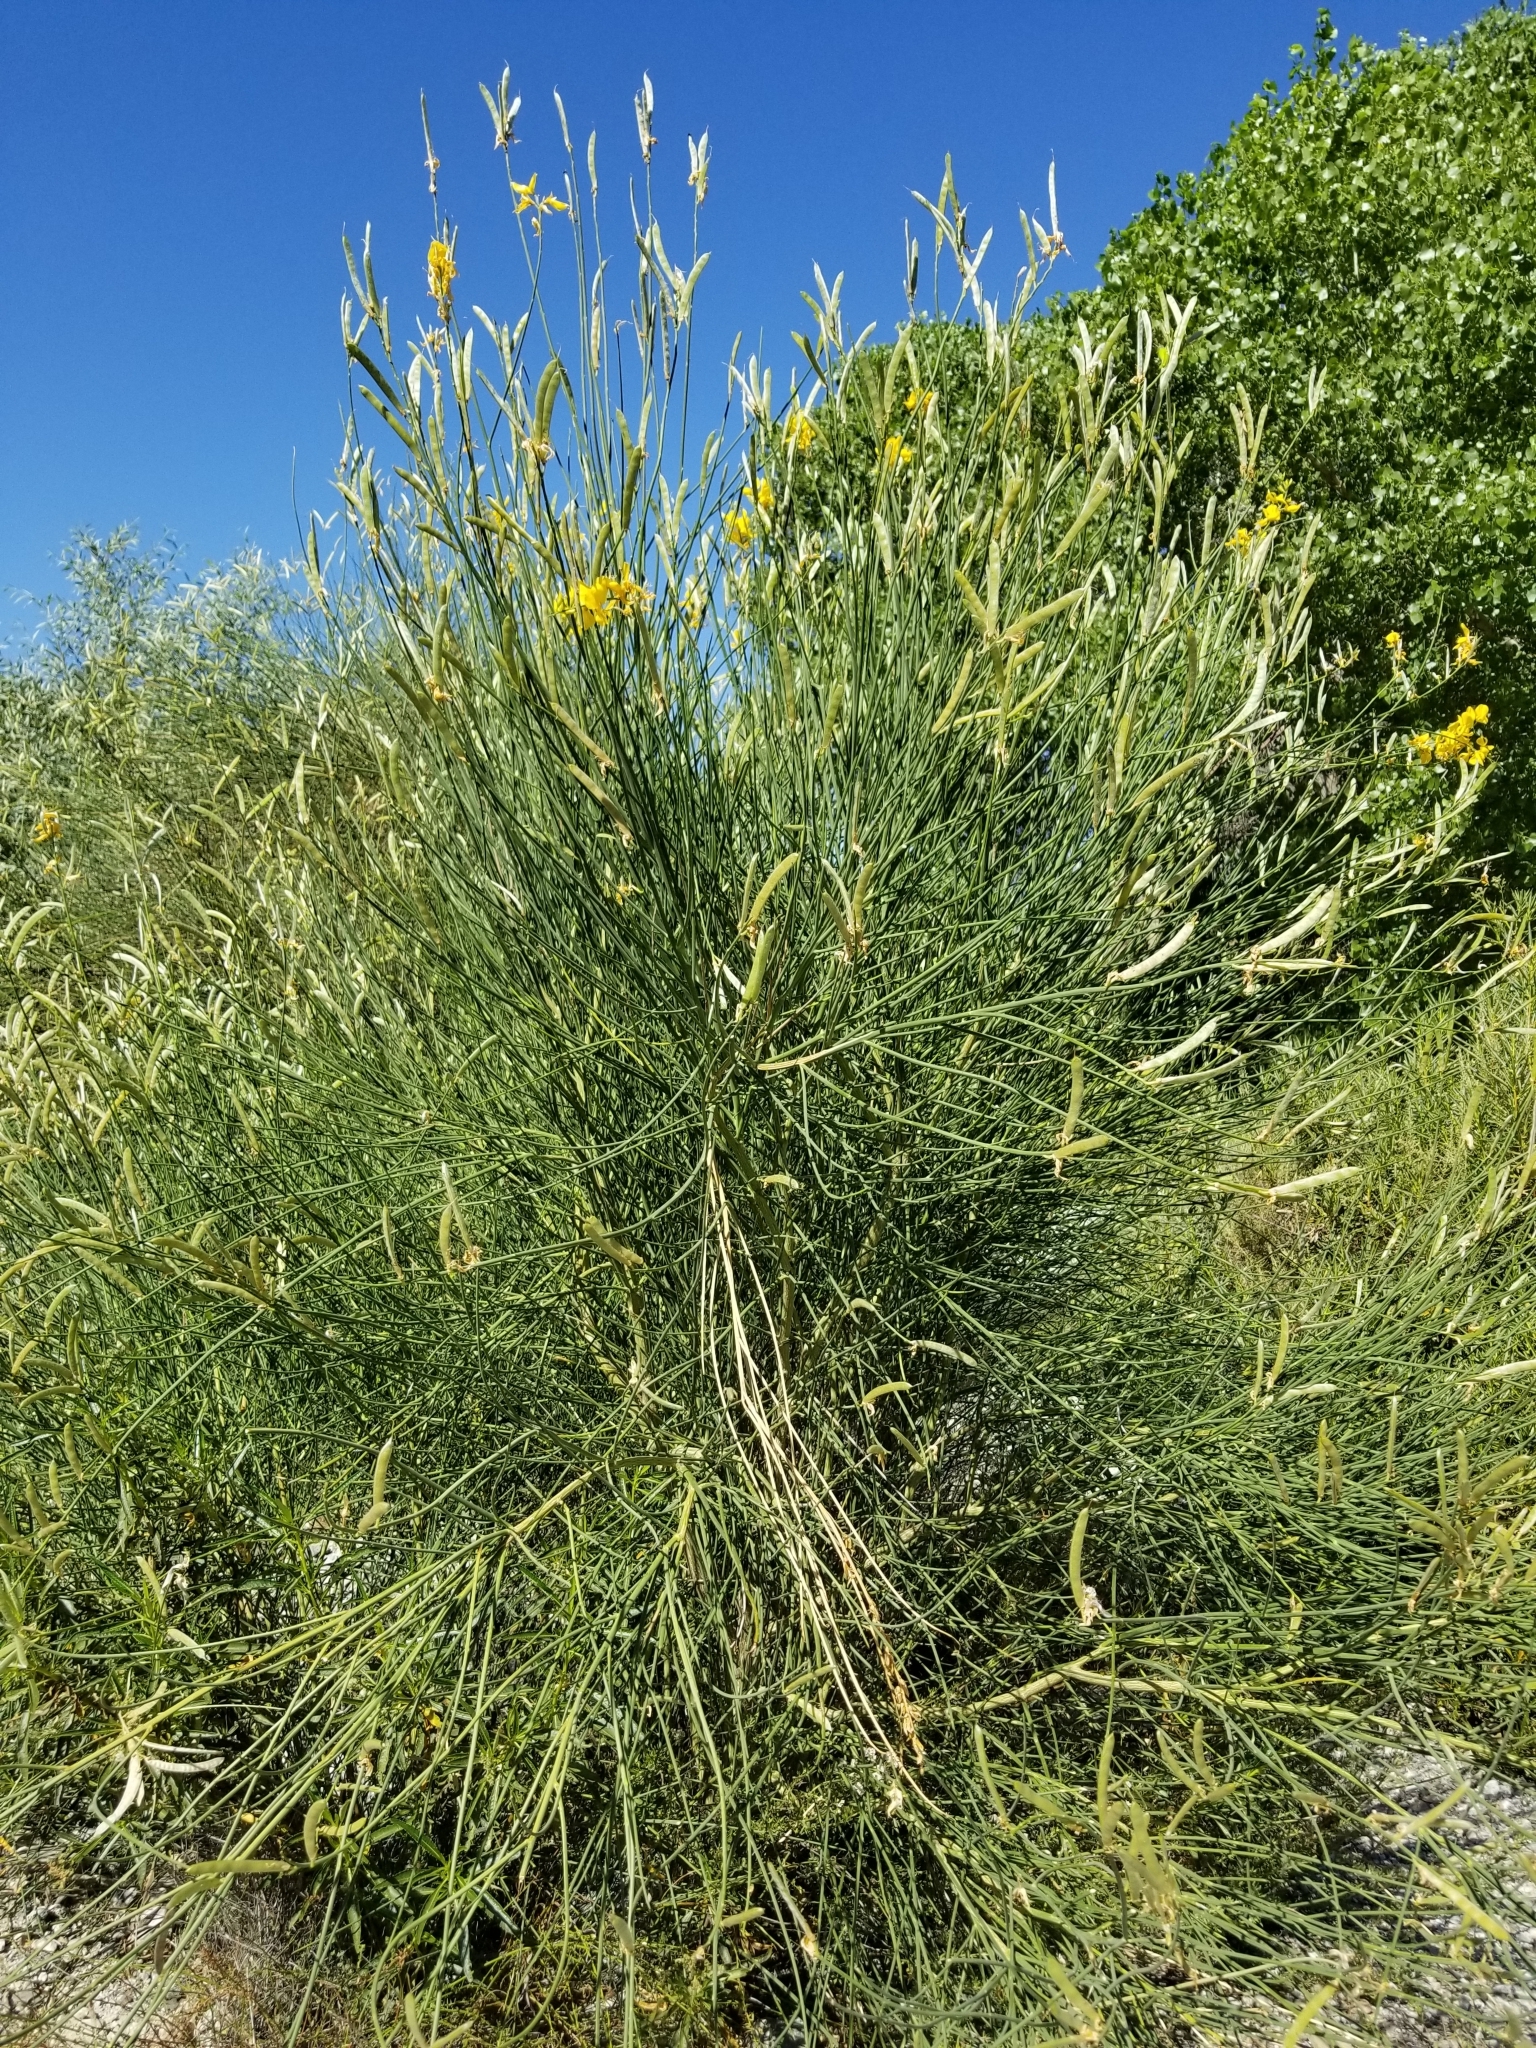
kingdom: Plantae
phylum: Tracheophyta
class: Magnoliopsida
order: Fabales
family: Fabaceae
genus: Spartium
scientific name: Spartium junceum
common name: Spanish broom
